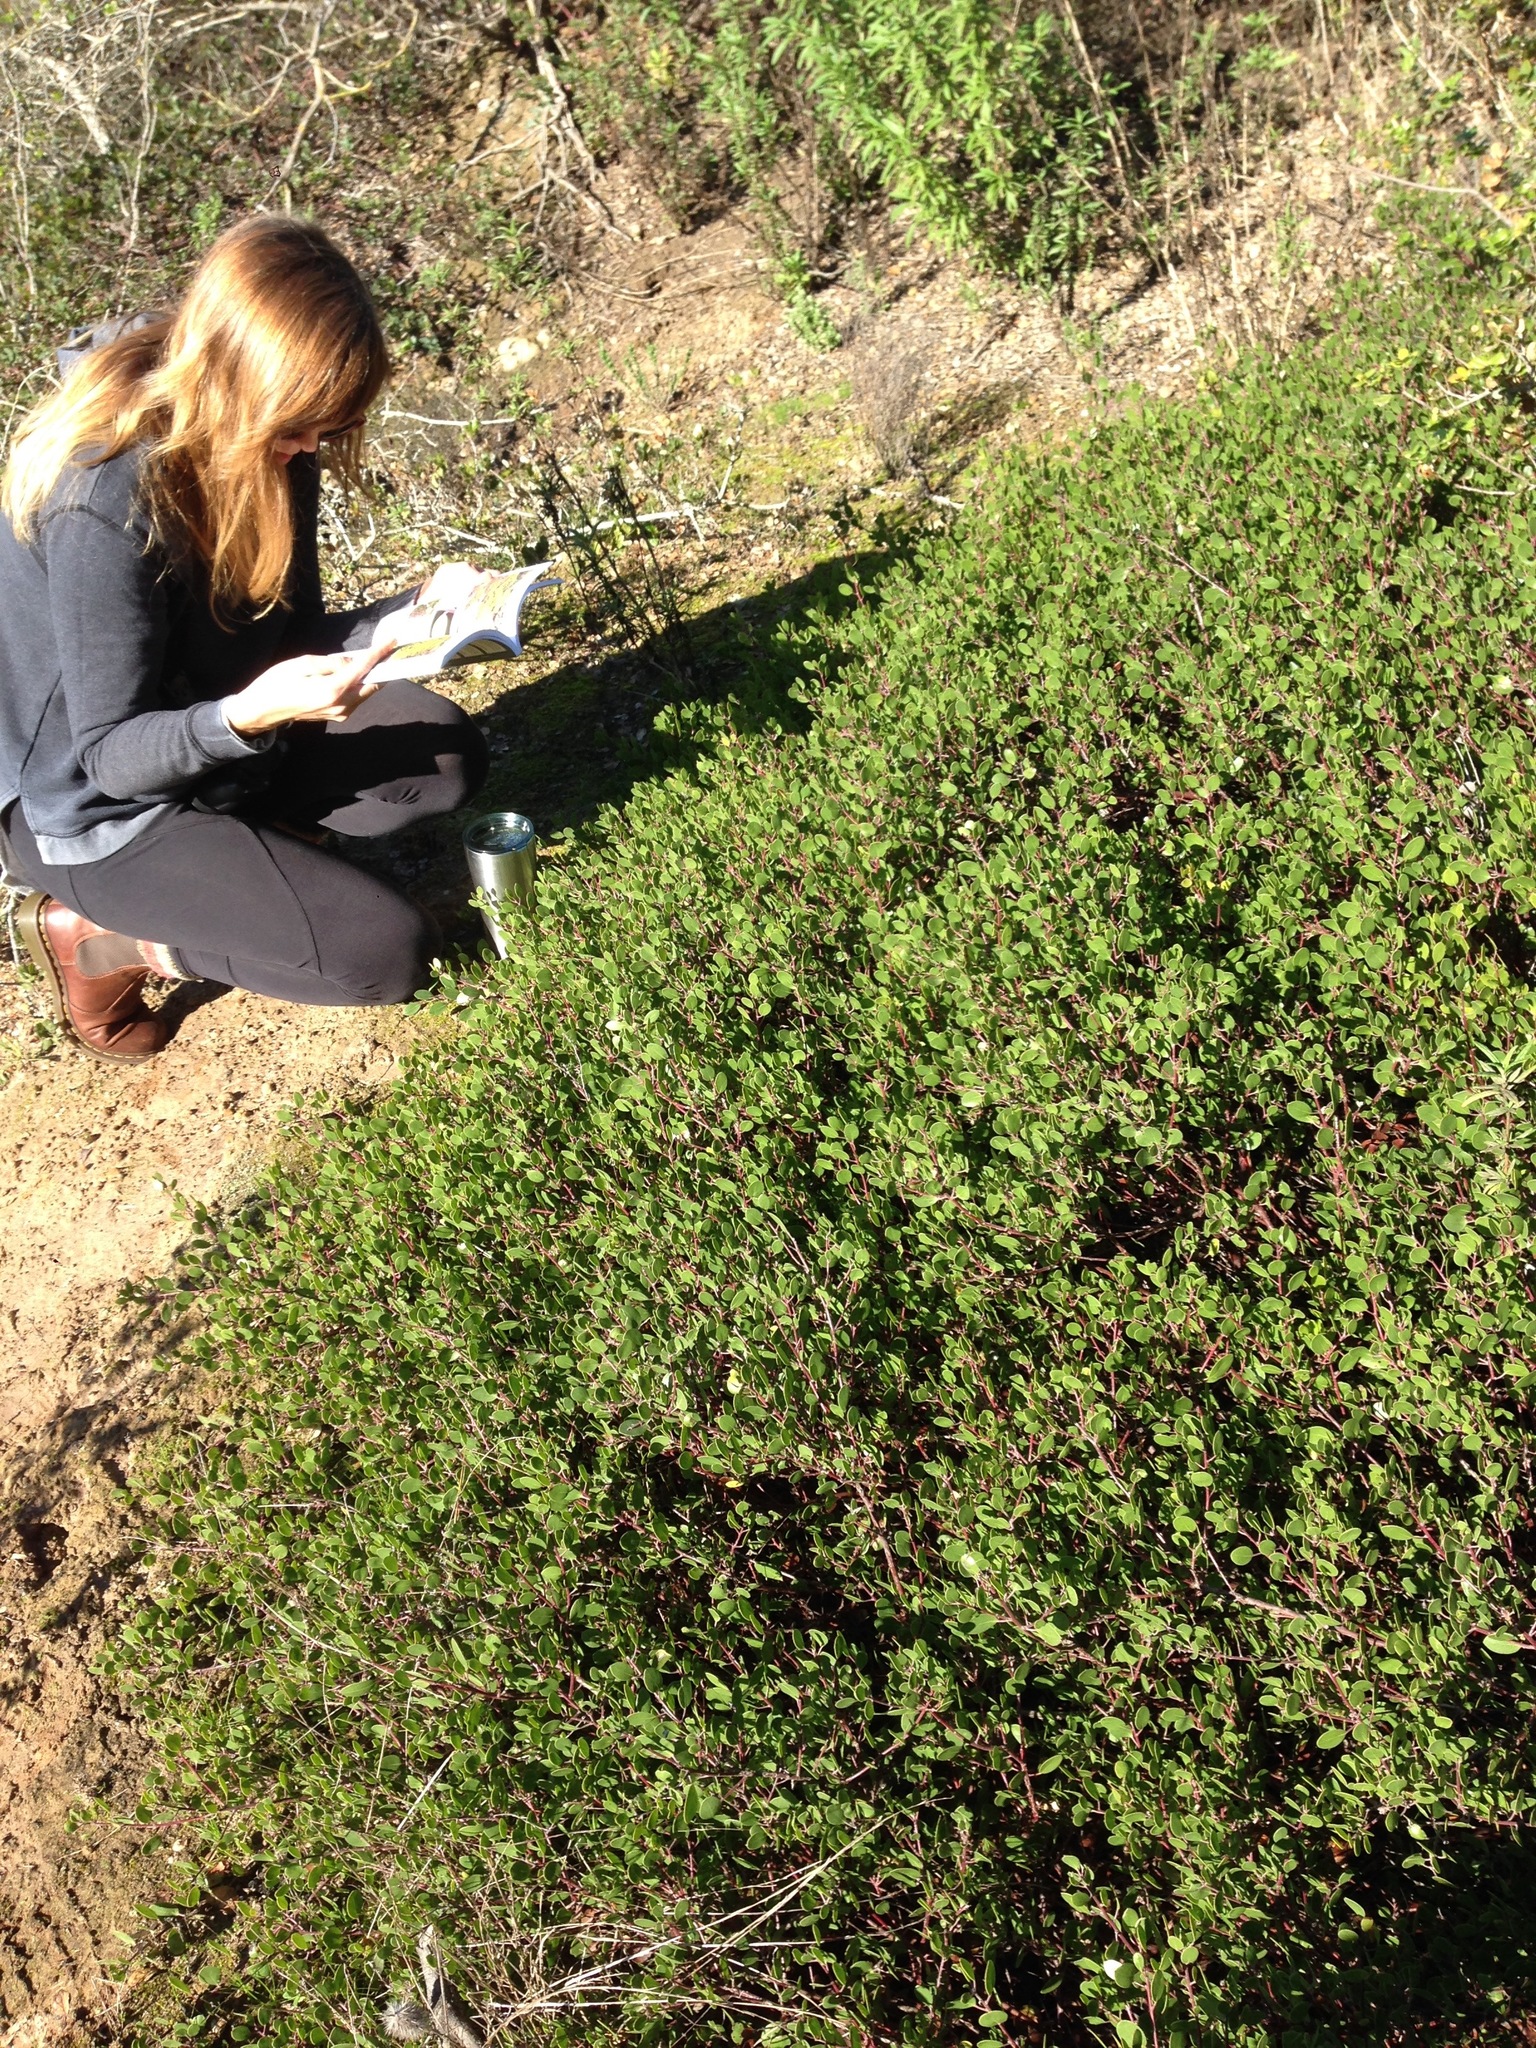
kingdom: Plantae
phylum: Tracheophyta
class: Magnoliopsida
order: Ericales
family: Ericaceae
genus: Arctostaphylos
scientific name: Arctostaphylos hookeri
